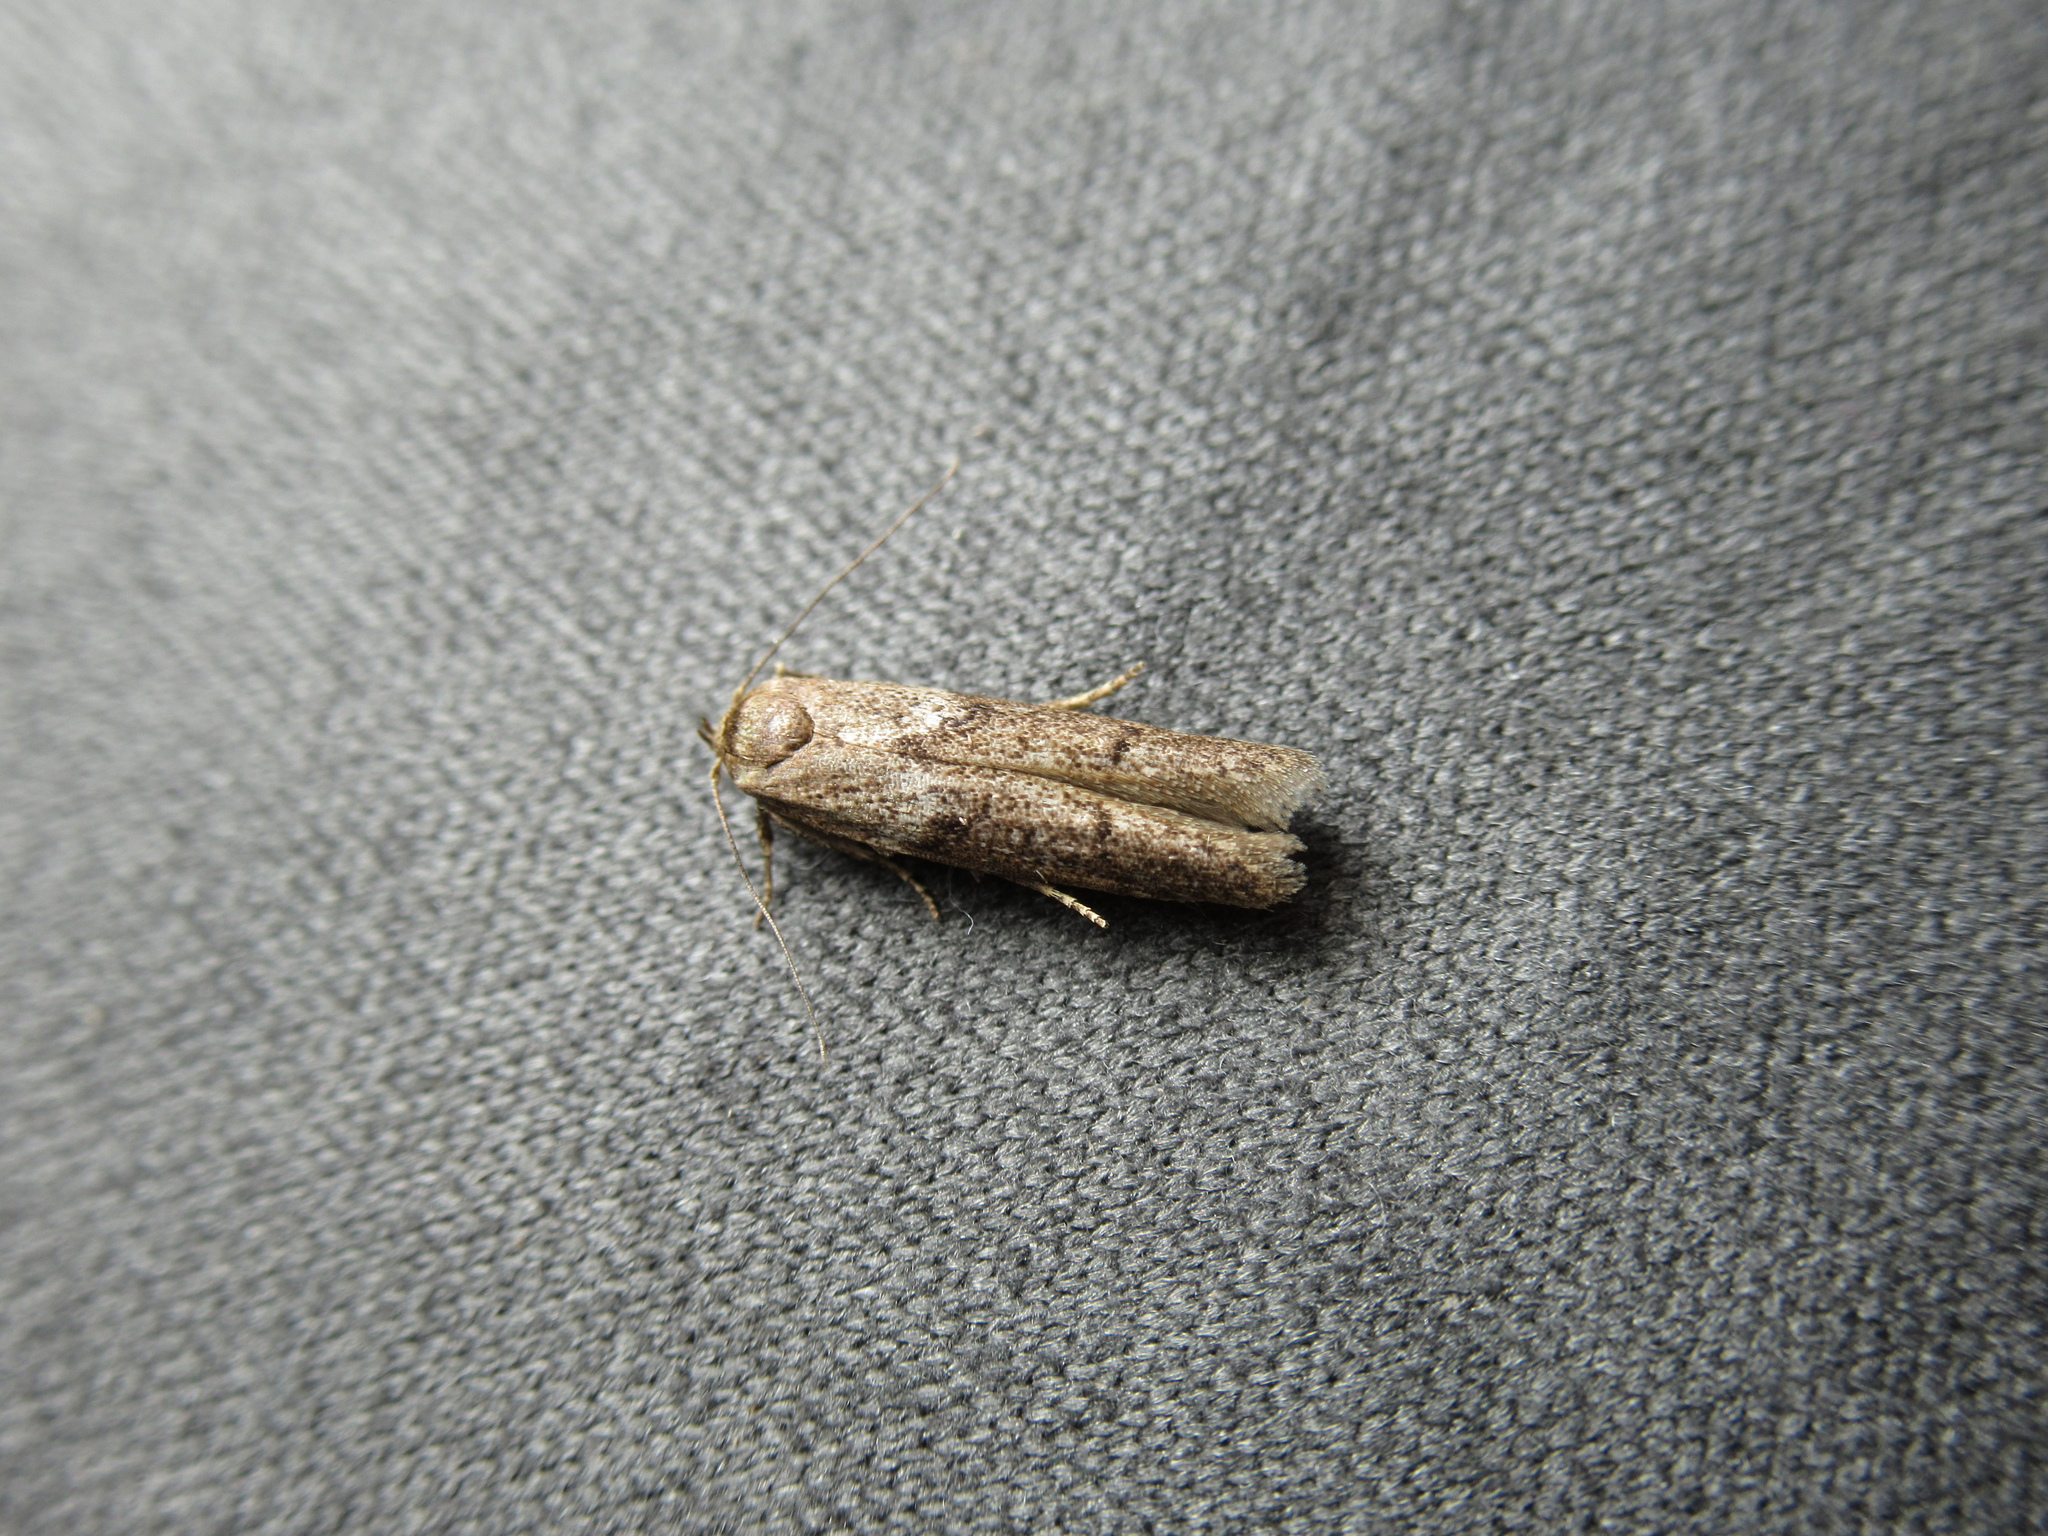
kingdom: Animalia
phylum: Arthropoda
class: Insecta
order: Lepidoptera
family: Blastobasidae
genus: Blastobasis
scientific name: Blastobasis tarda
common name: Blastobasid moth
